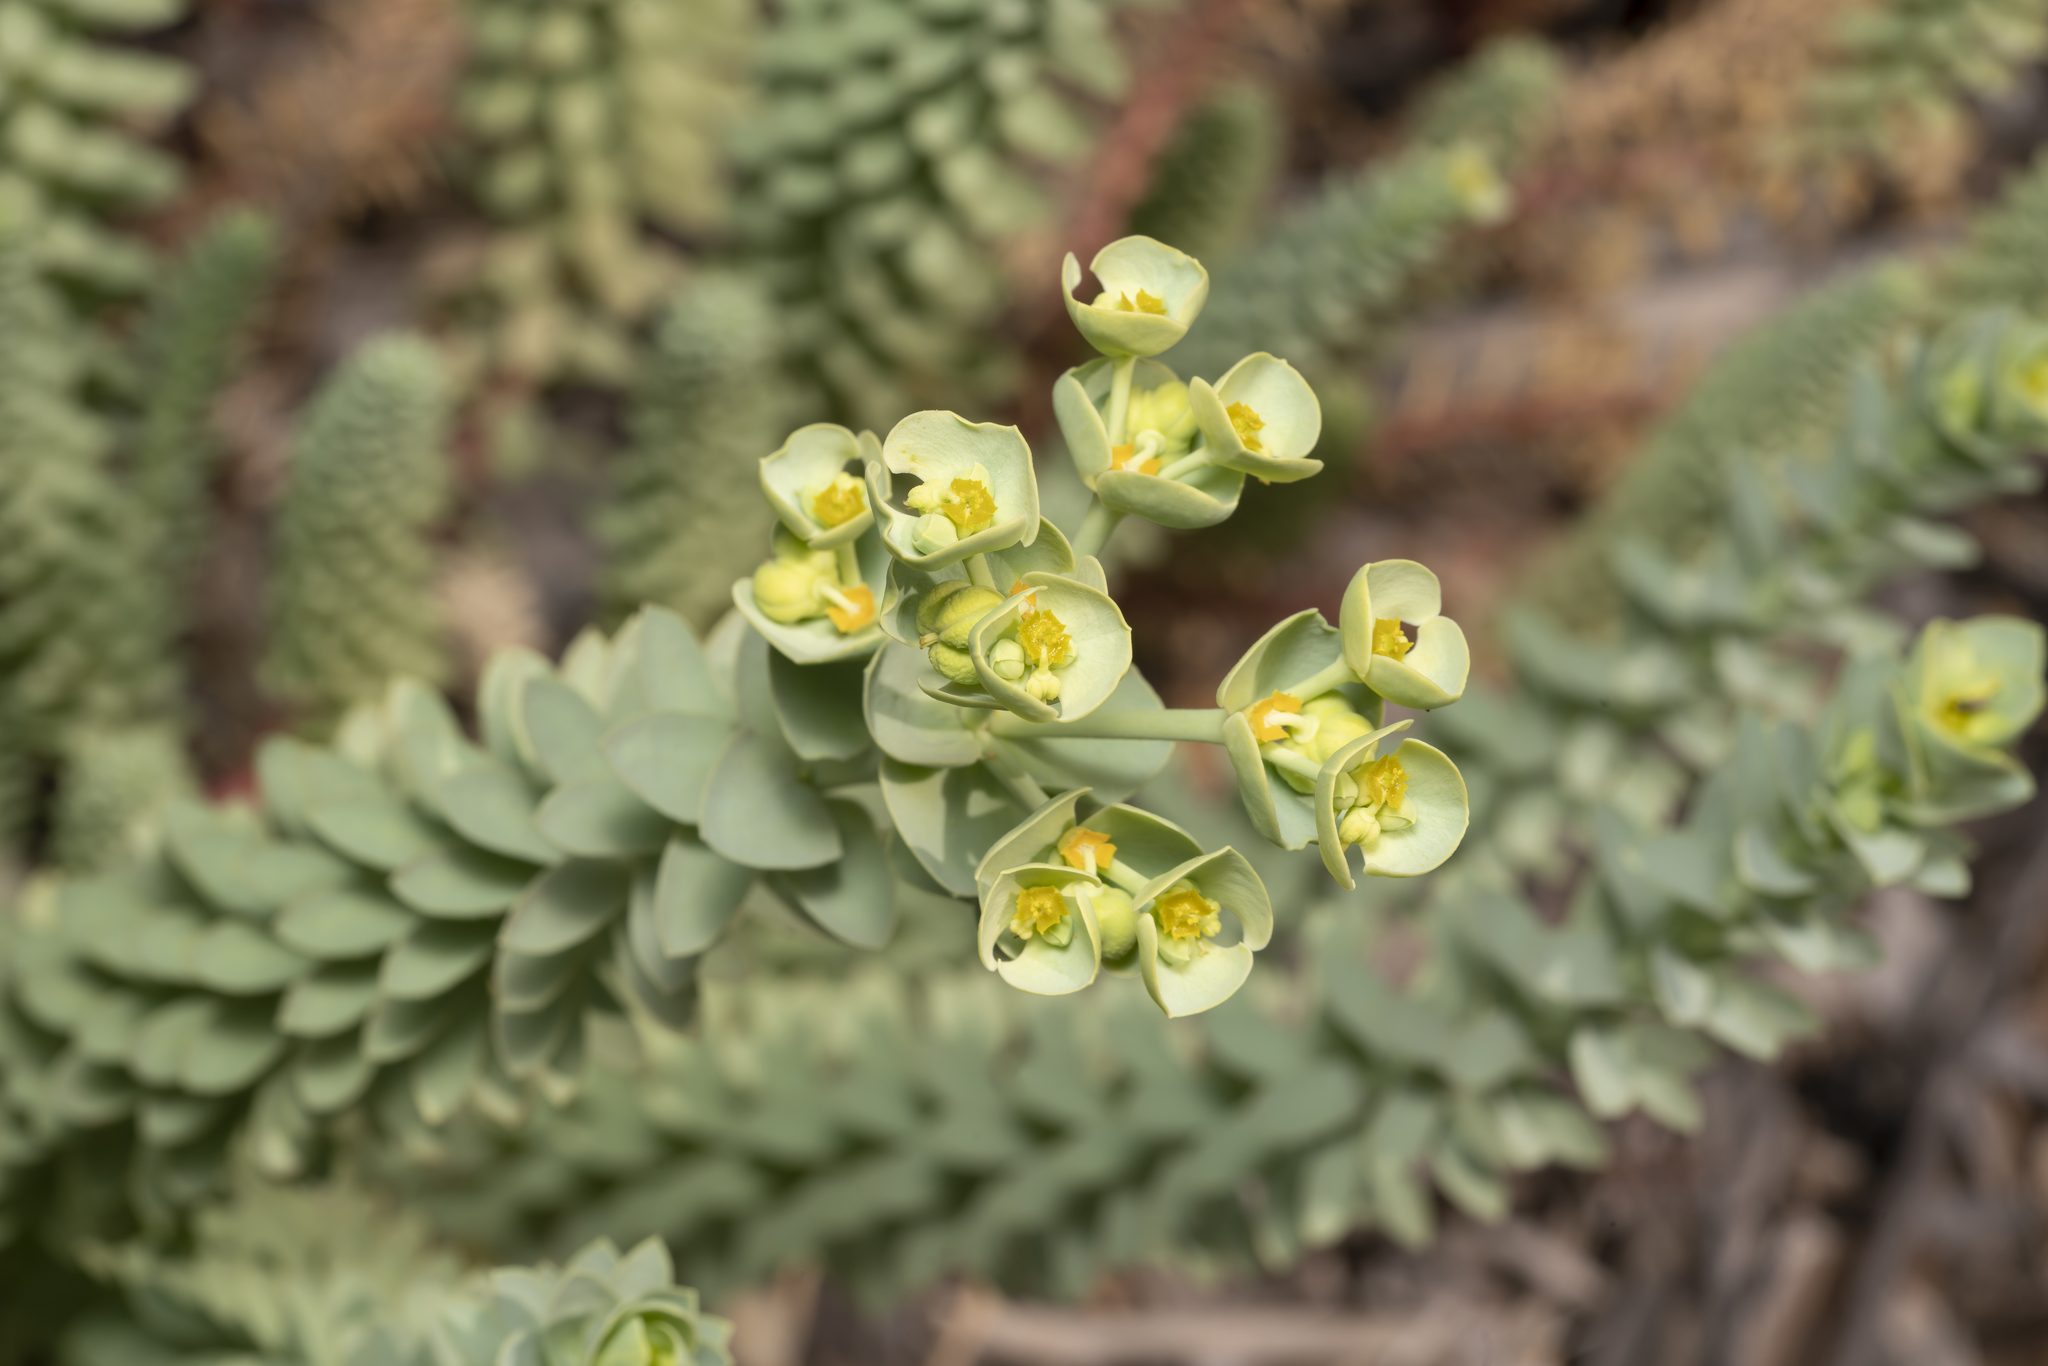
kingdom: Plantae
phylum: Tracheophyta
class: Magnoliopsida
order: Malpighiales
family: Euphorbiaceae
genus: Euphorbia
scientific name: Euphorbia paralias
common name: Sea spurge
